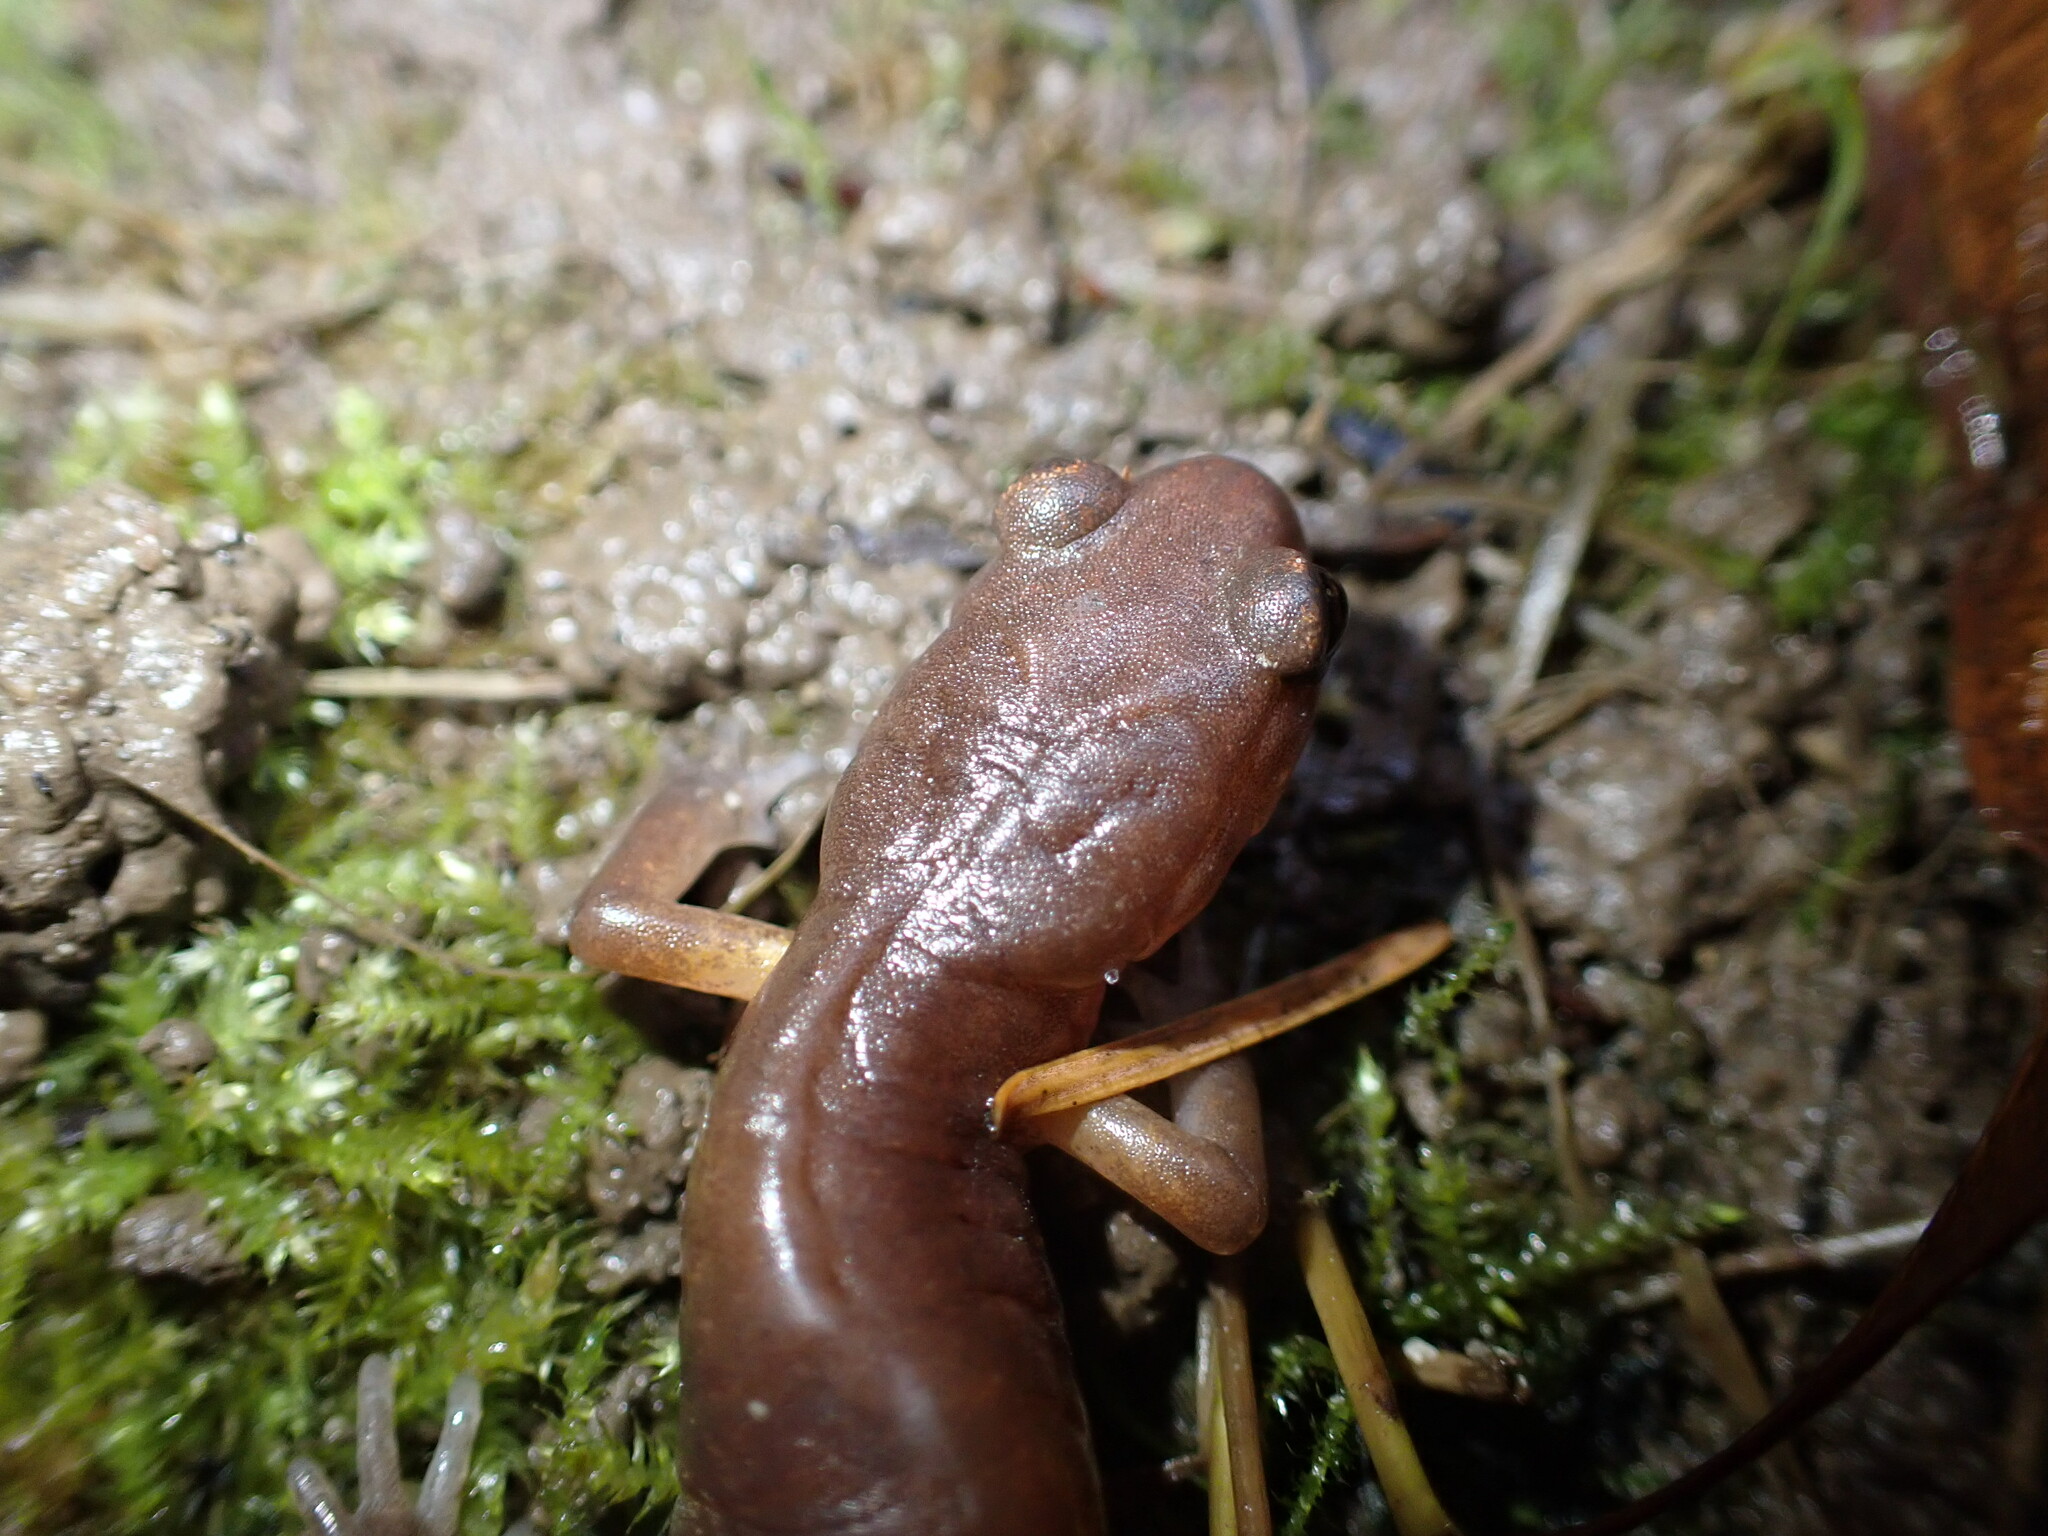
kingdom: Animalia
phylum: Chordata
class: Amphibia
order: Caudata
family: Plethodontidae
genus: Ensatina
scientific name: Ensatina eschscholtzii
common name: Ensatina
